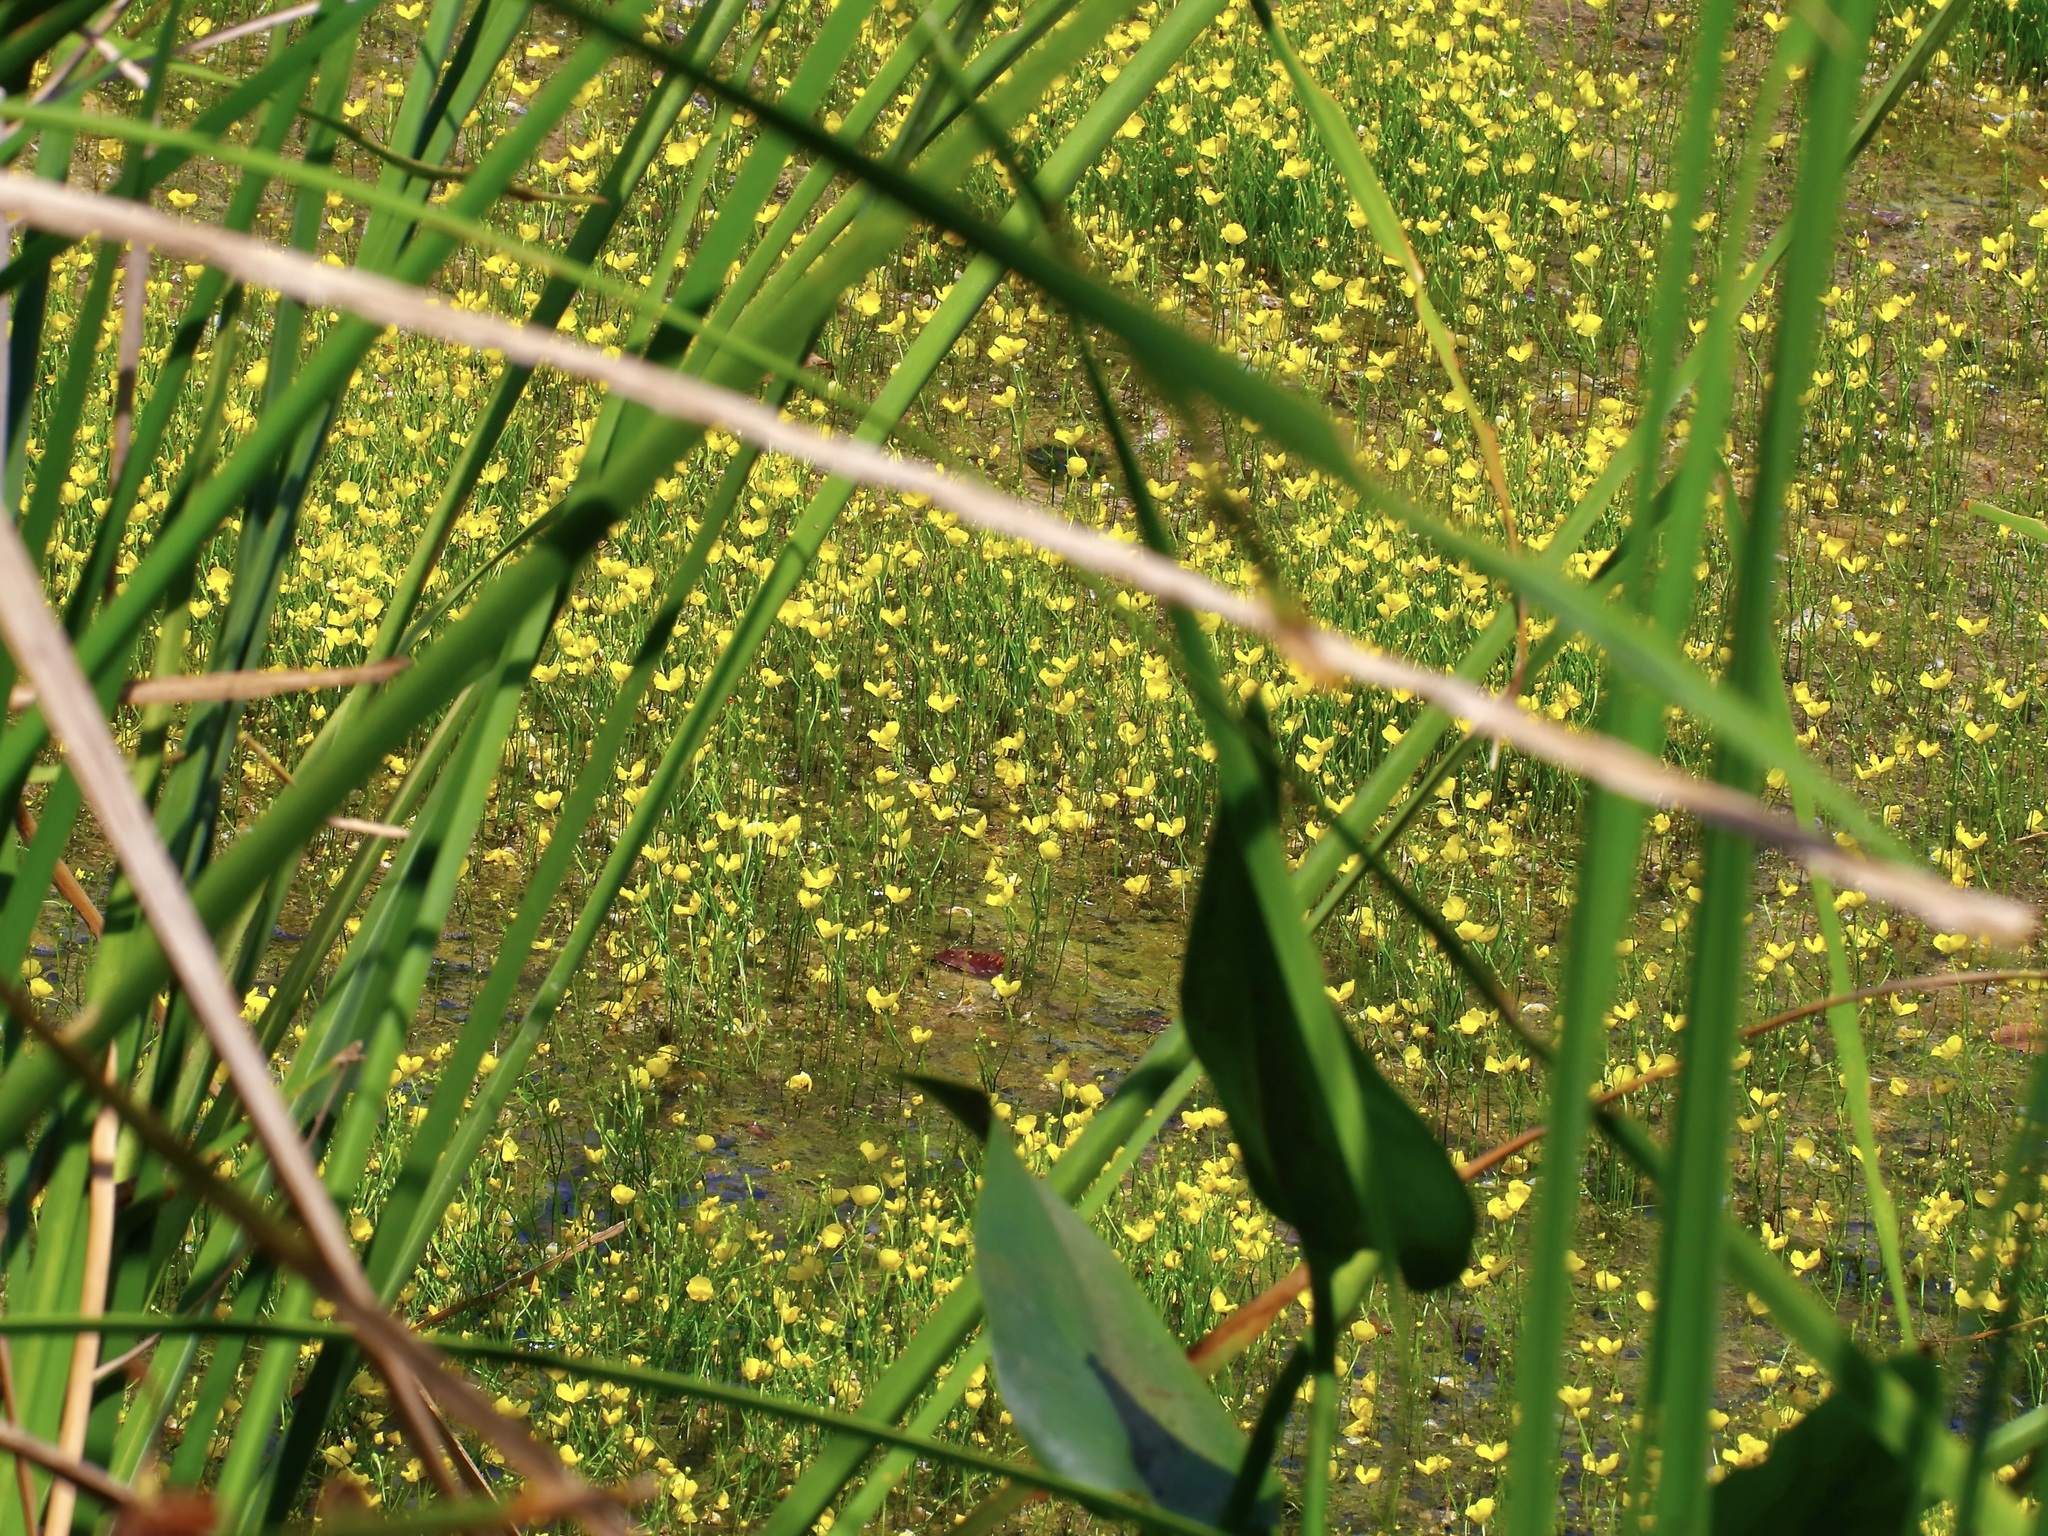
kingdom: Plantae
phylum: Tracheophyta
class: Magnoliopsida
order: Lamiales
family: Lentibulariaceae
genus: Utricularia
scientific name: Utricularia gibba
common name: Humped bladderwort
